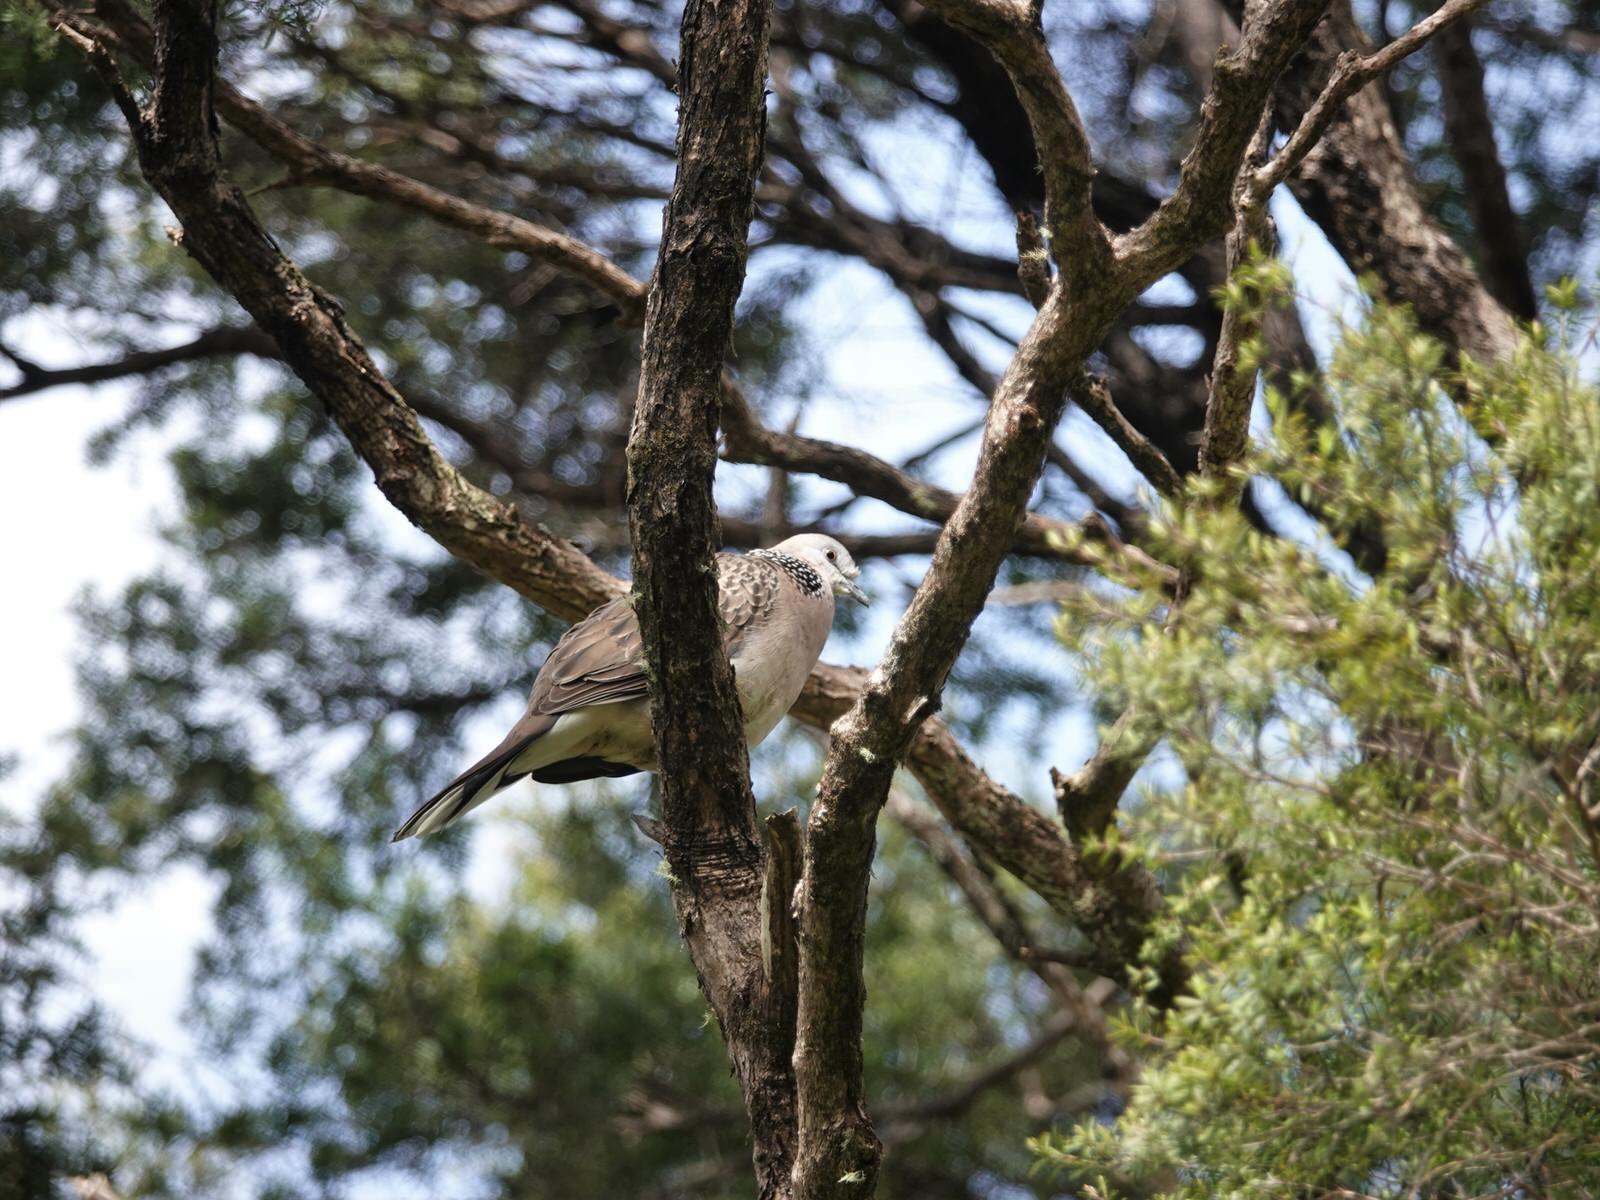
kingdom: Animalia
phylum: Chordata
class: Aves
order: Columbiformes
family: Columbidae
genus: Spilopelia
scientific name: Spilopelia chinensis
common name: Spotted dove
